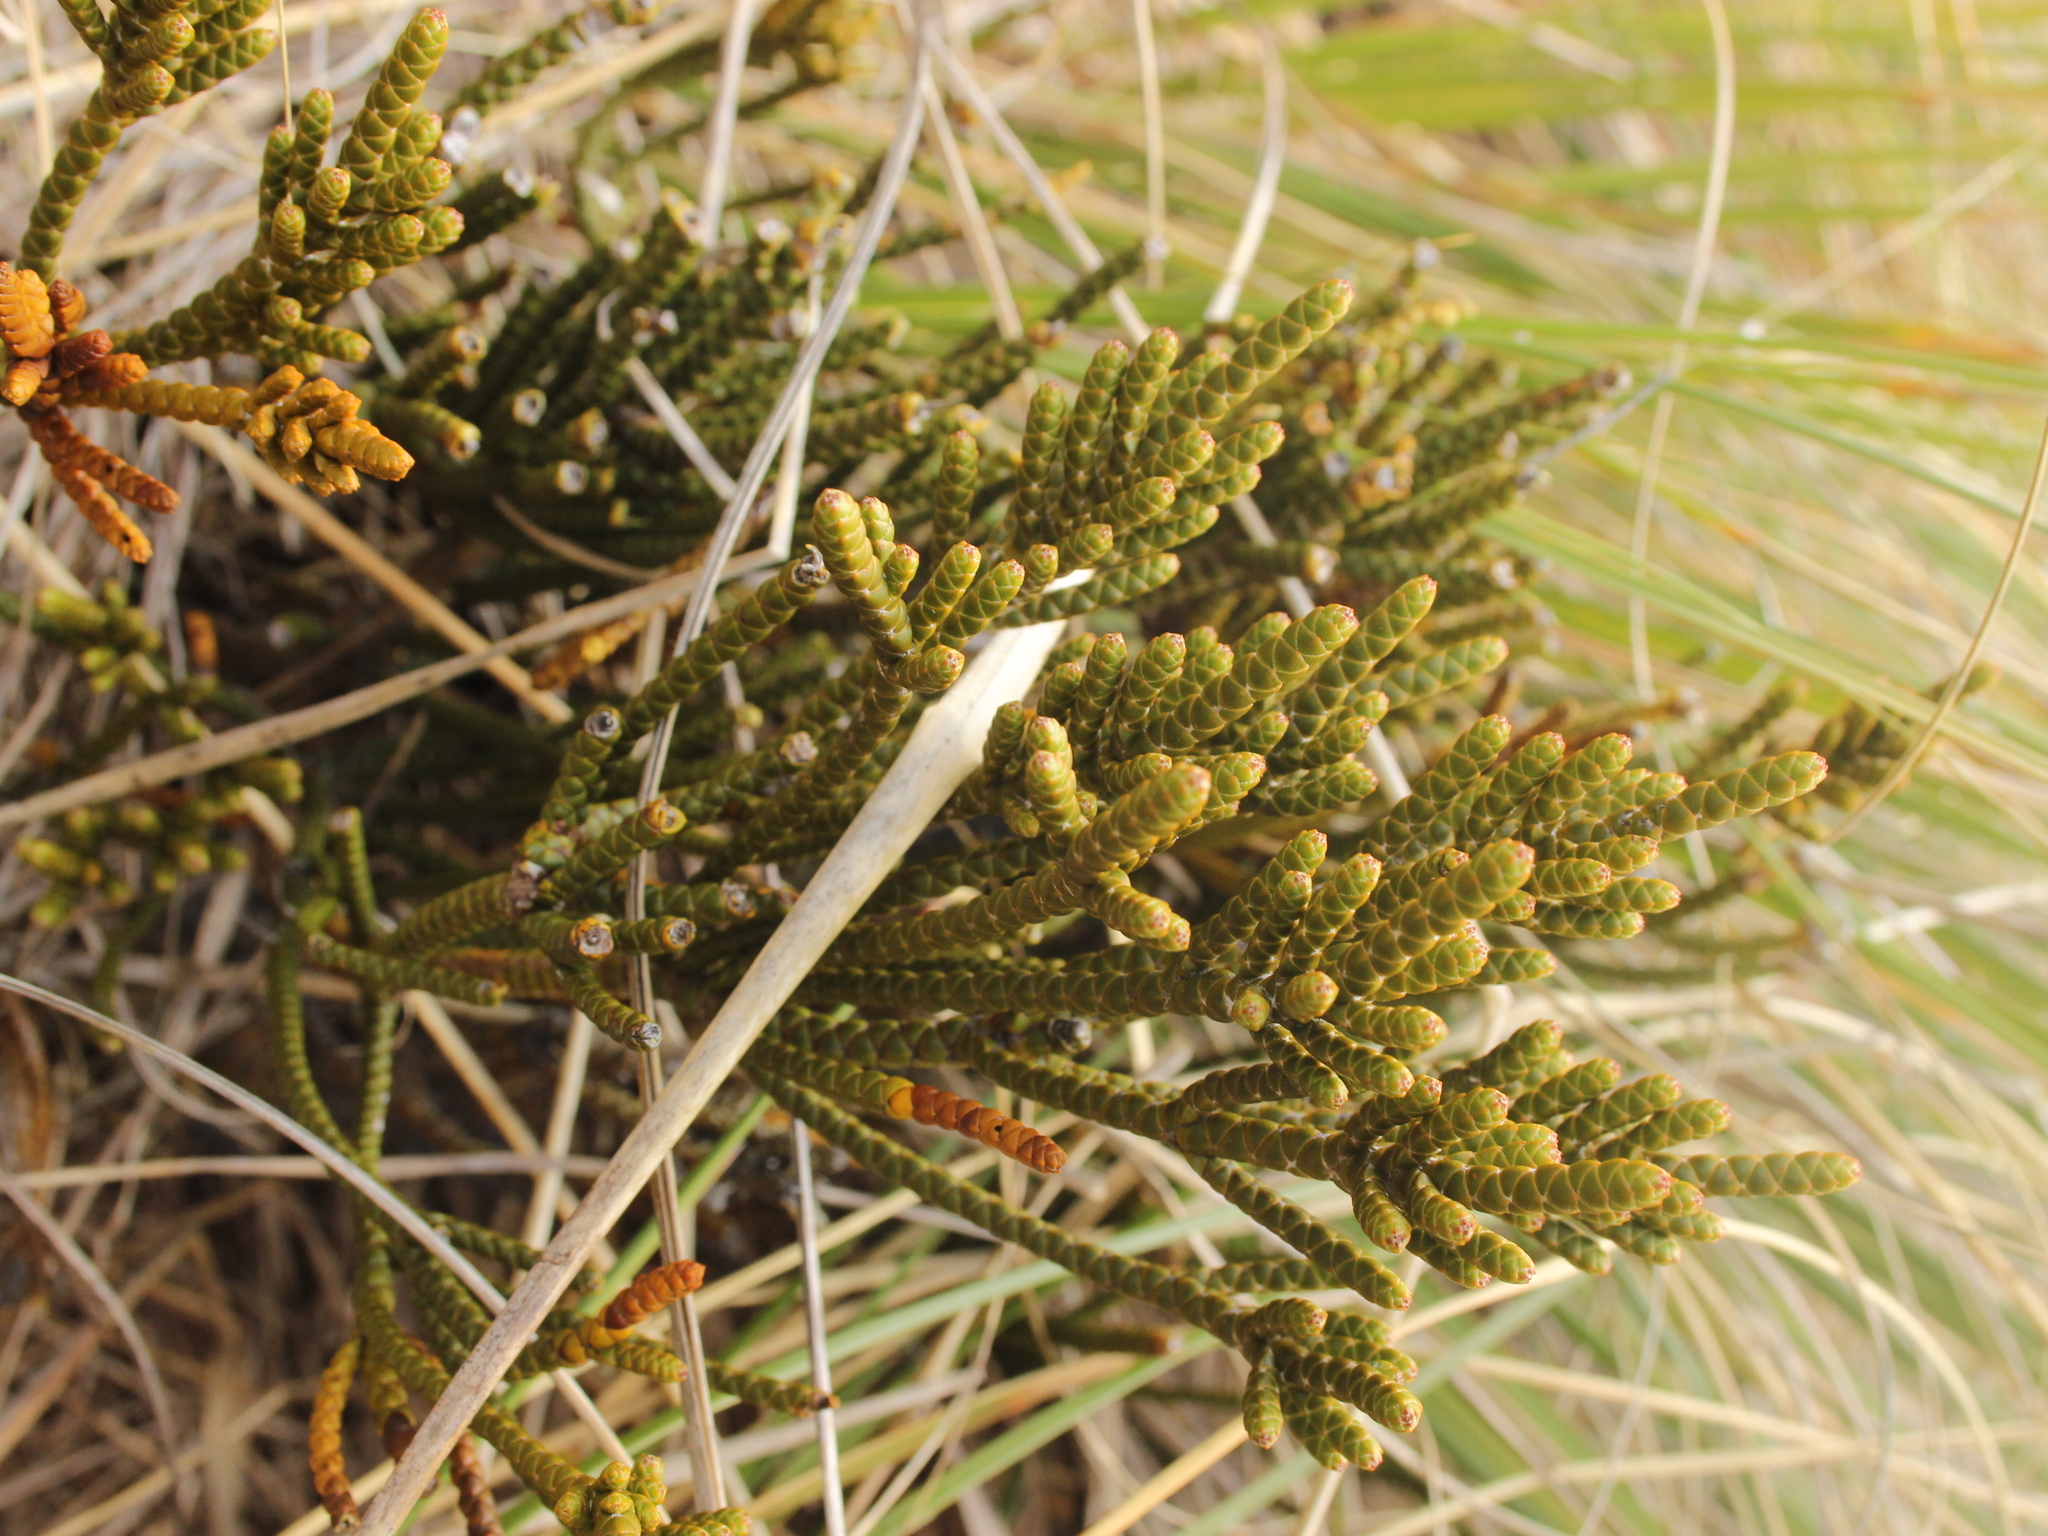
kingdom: Plantae
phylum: Tracheophyta
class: Magnoliopsida
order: Lamiales
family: Plantaginaceae
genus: Veronica
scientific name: Veronica hectorii
